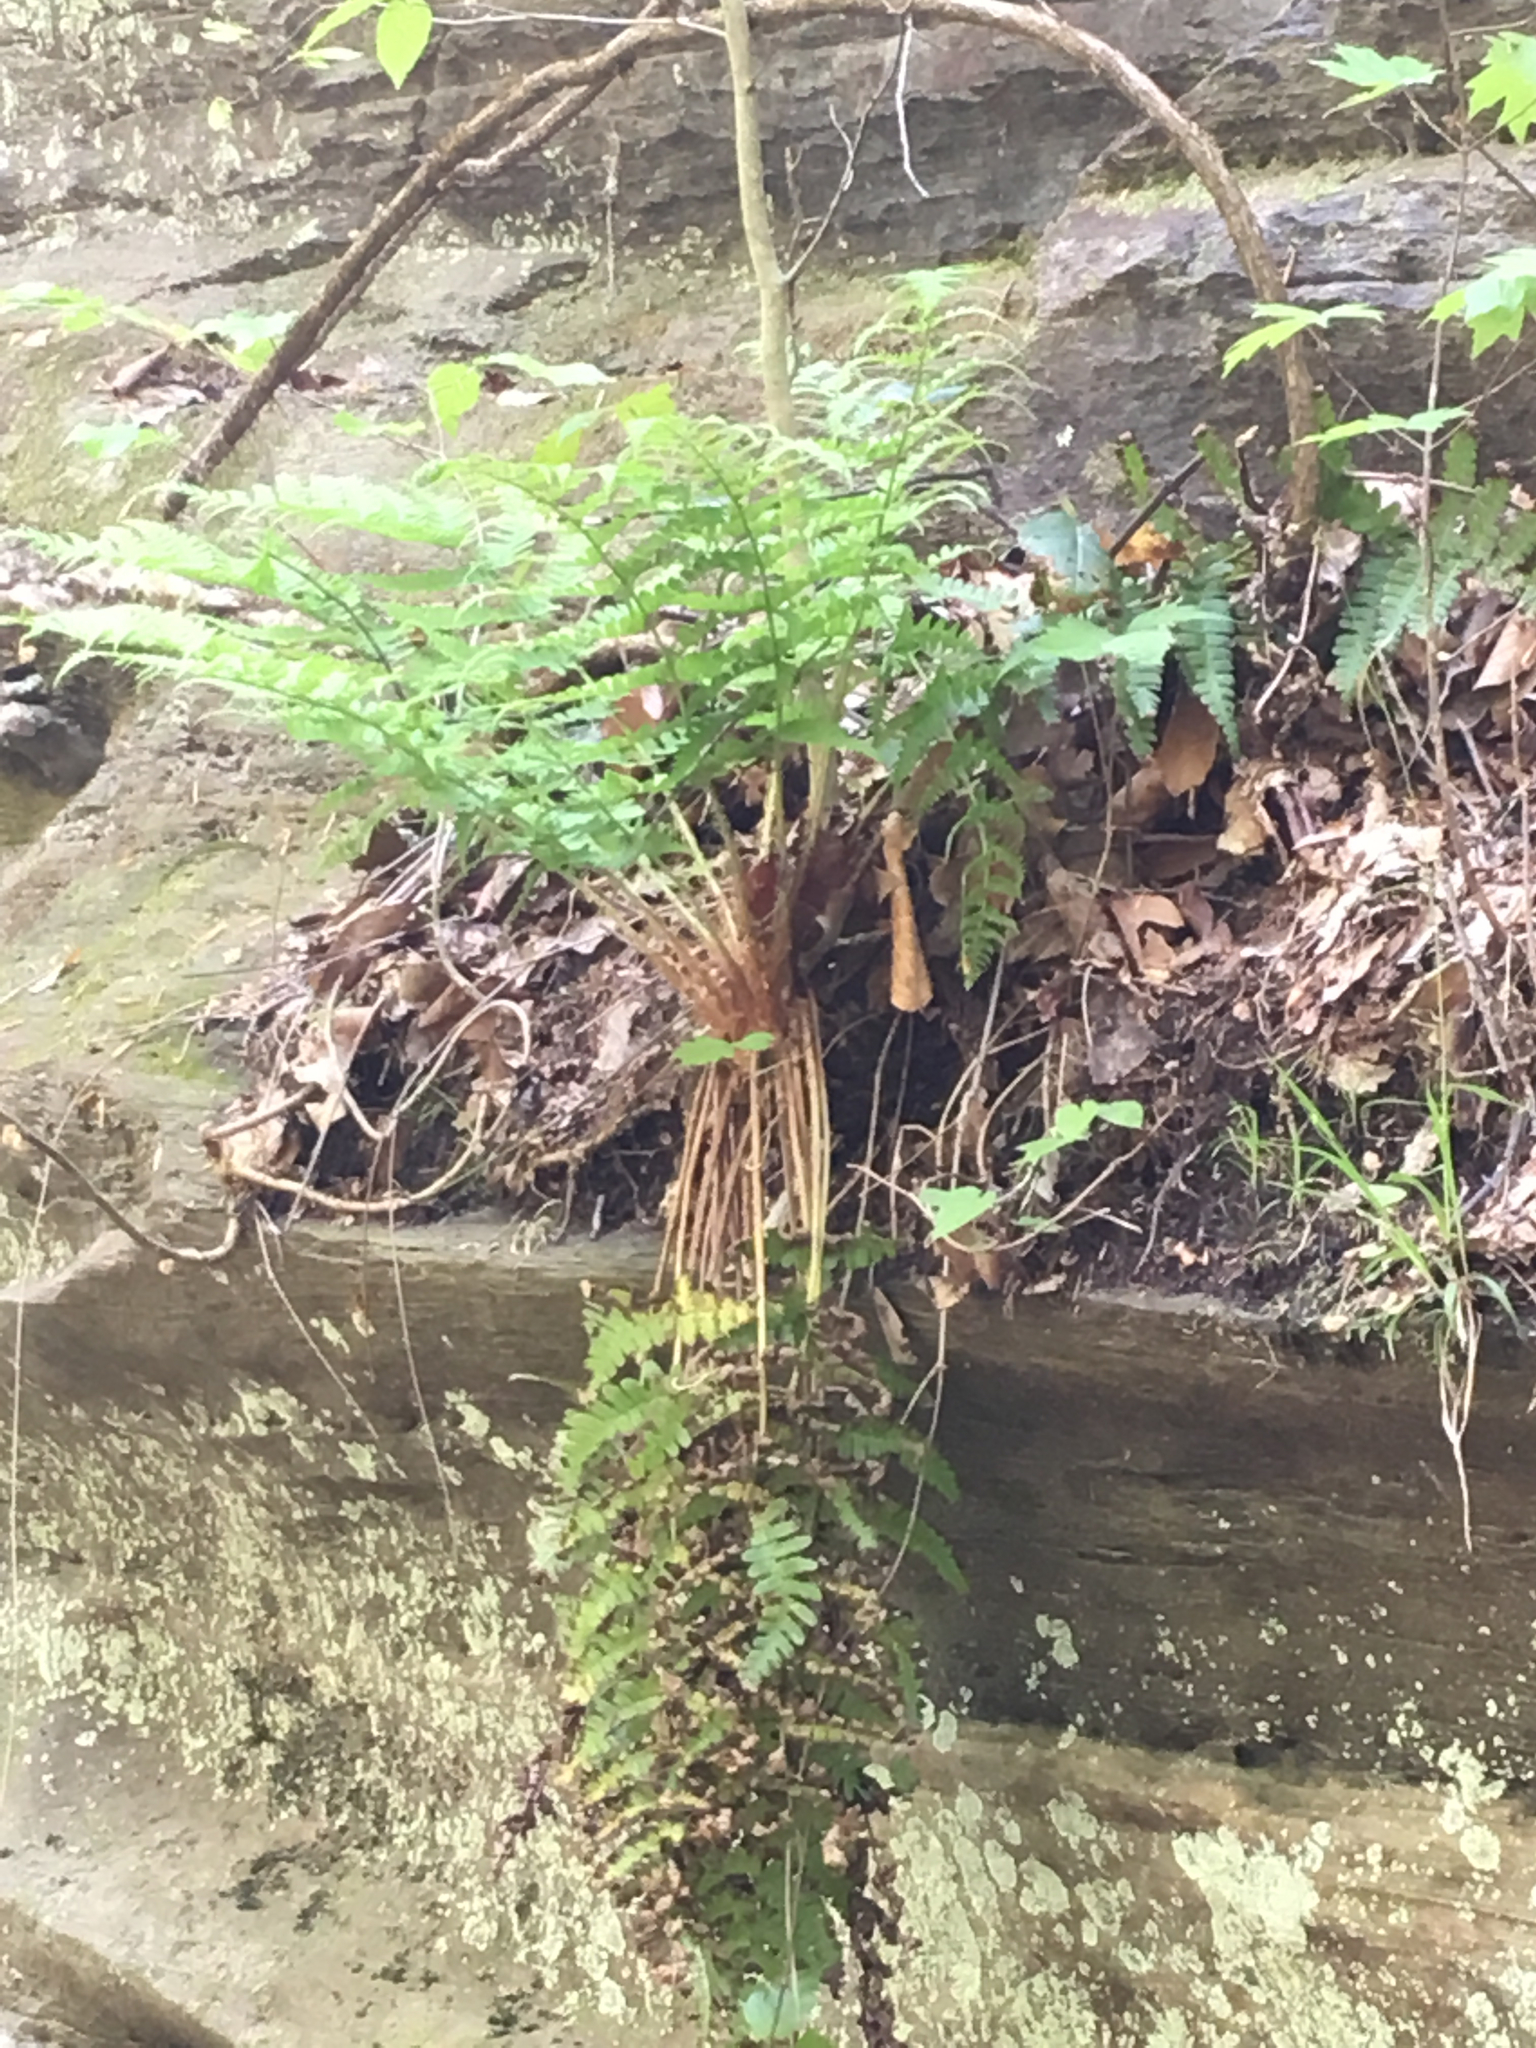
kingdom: Plantae
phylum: Tracheophyta
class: Polypodiopsida
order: Polypodiales
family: Dryopteridaceae
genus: Dryopteris
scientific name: Dryopteris marginalis
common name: Marginal wood fern
